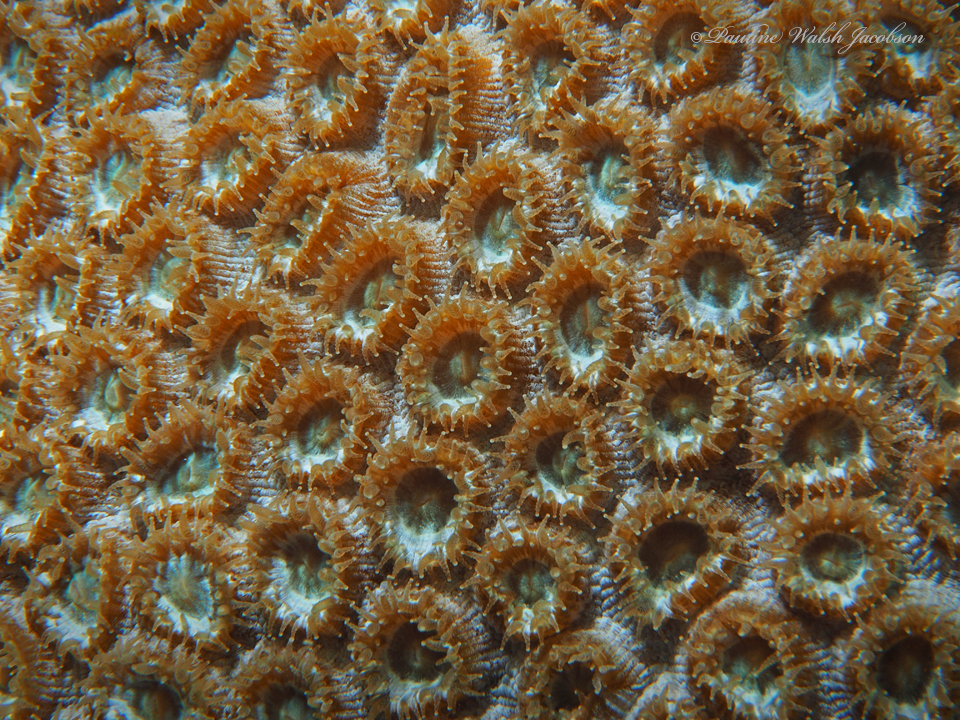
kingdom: Animalia
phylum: Cnidaria
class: Anthozoa
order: Scleractinia
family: Montastraeidae
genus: Montastraea
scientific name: Montastraea cavernosa
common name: Great star coral
